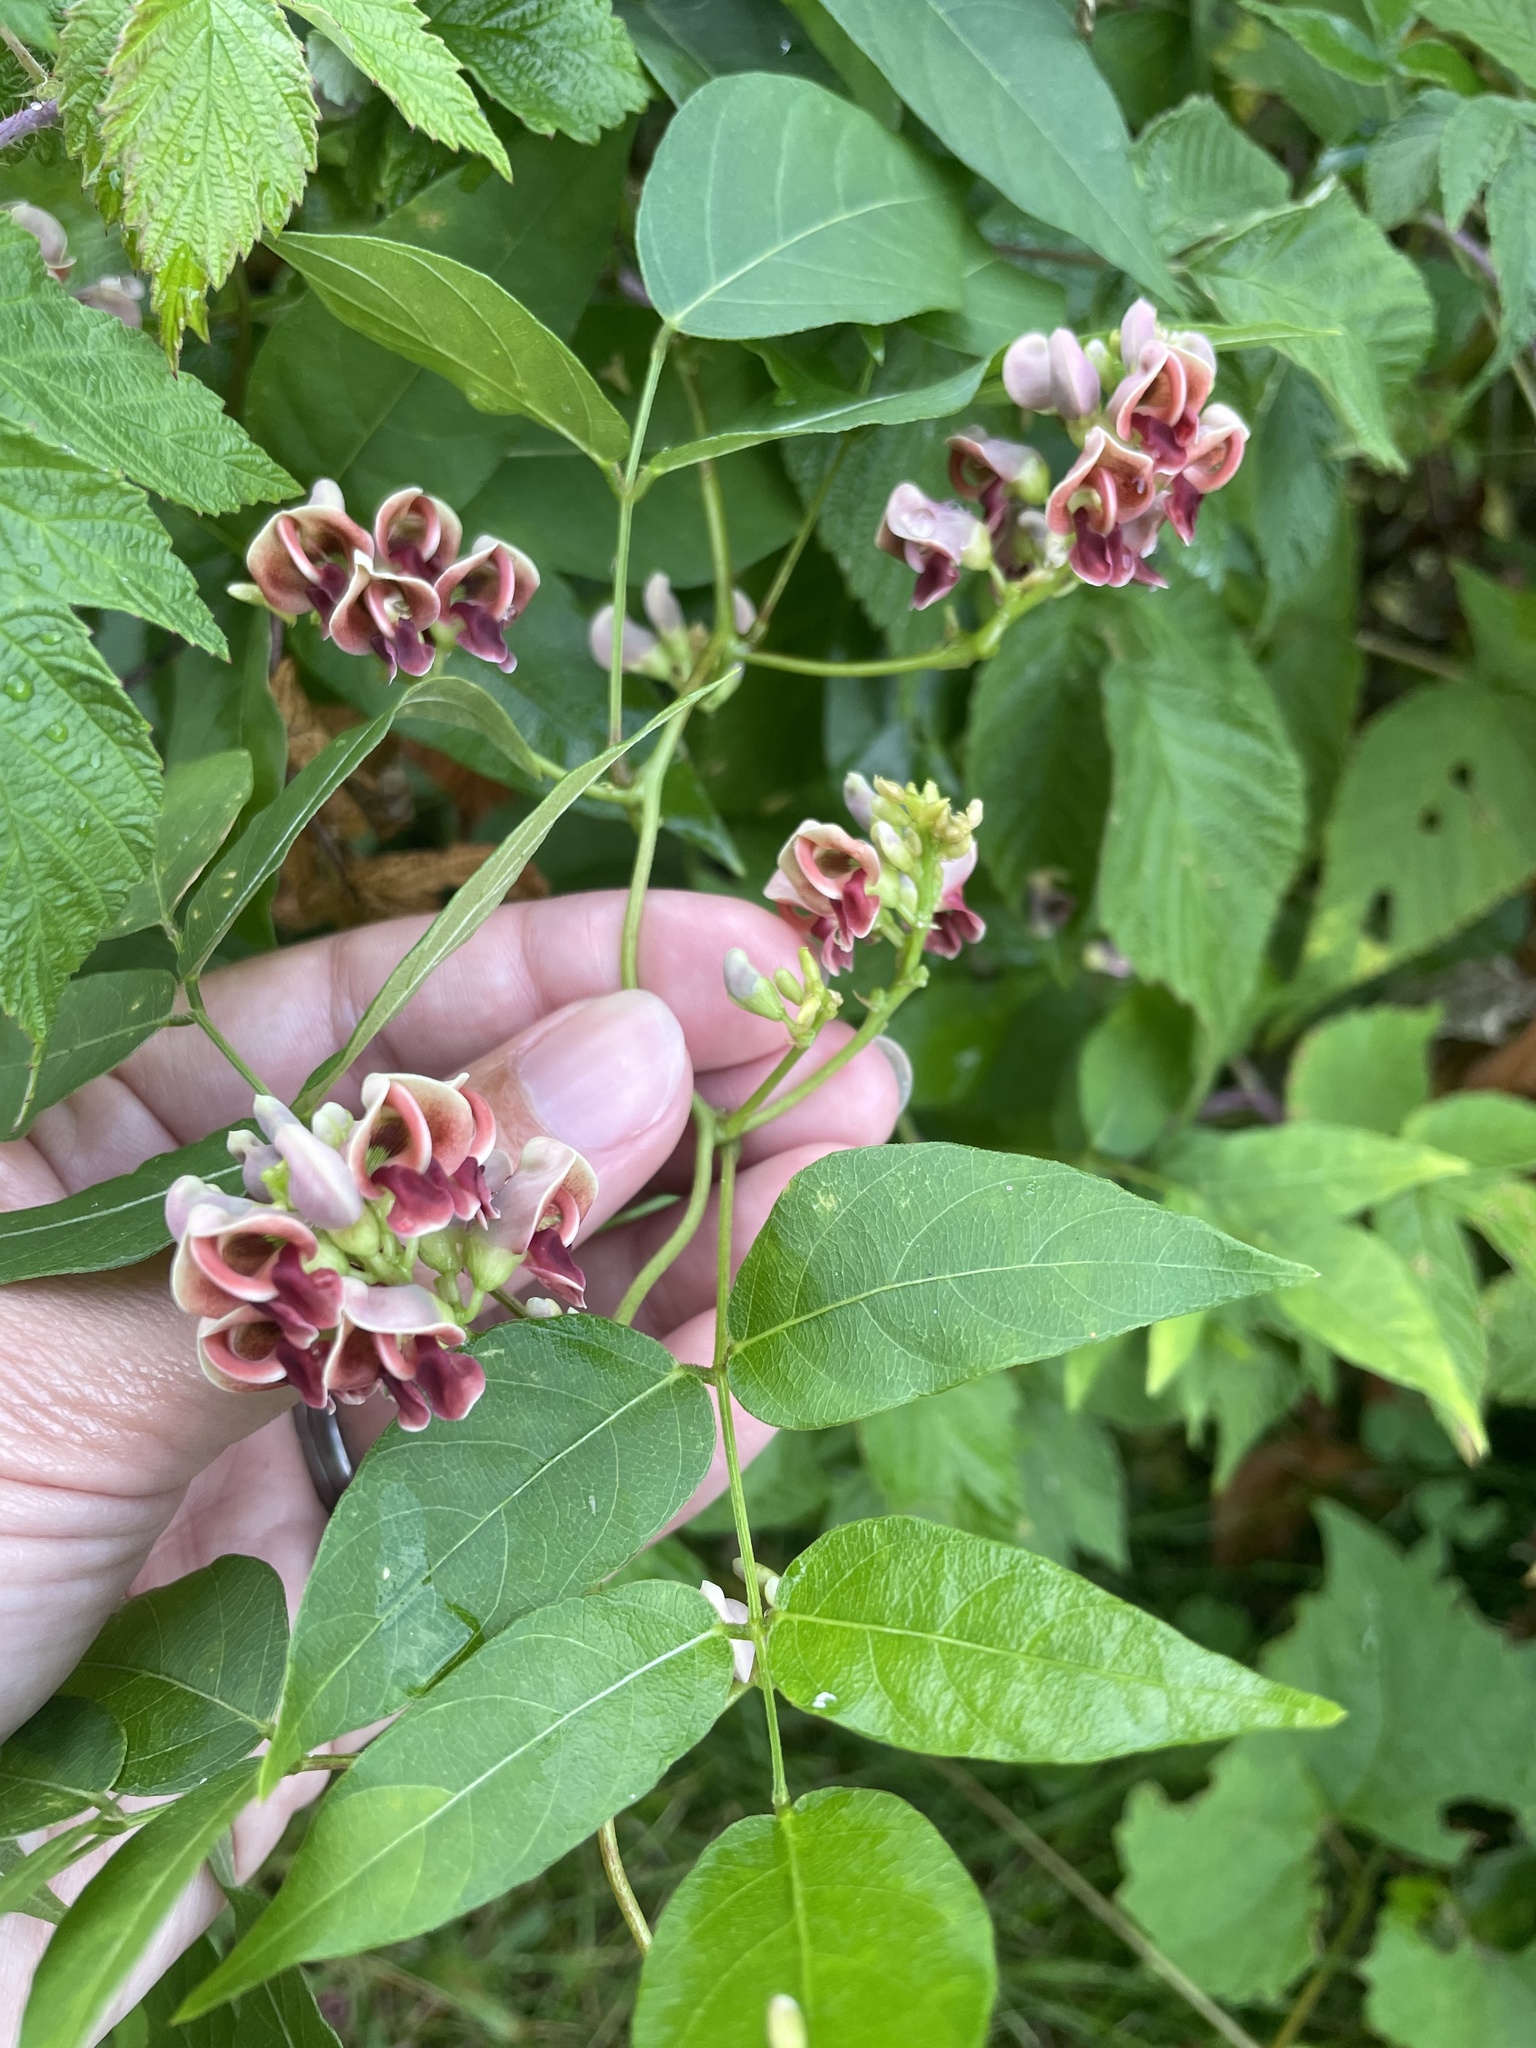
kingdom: Plantae
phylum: Tracheophyta
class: Magnoliopsida
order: Fabales
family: Fabaceae
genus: Apios
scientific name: Apios americana
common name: American potato-bean
